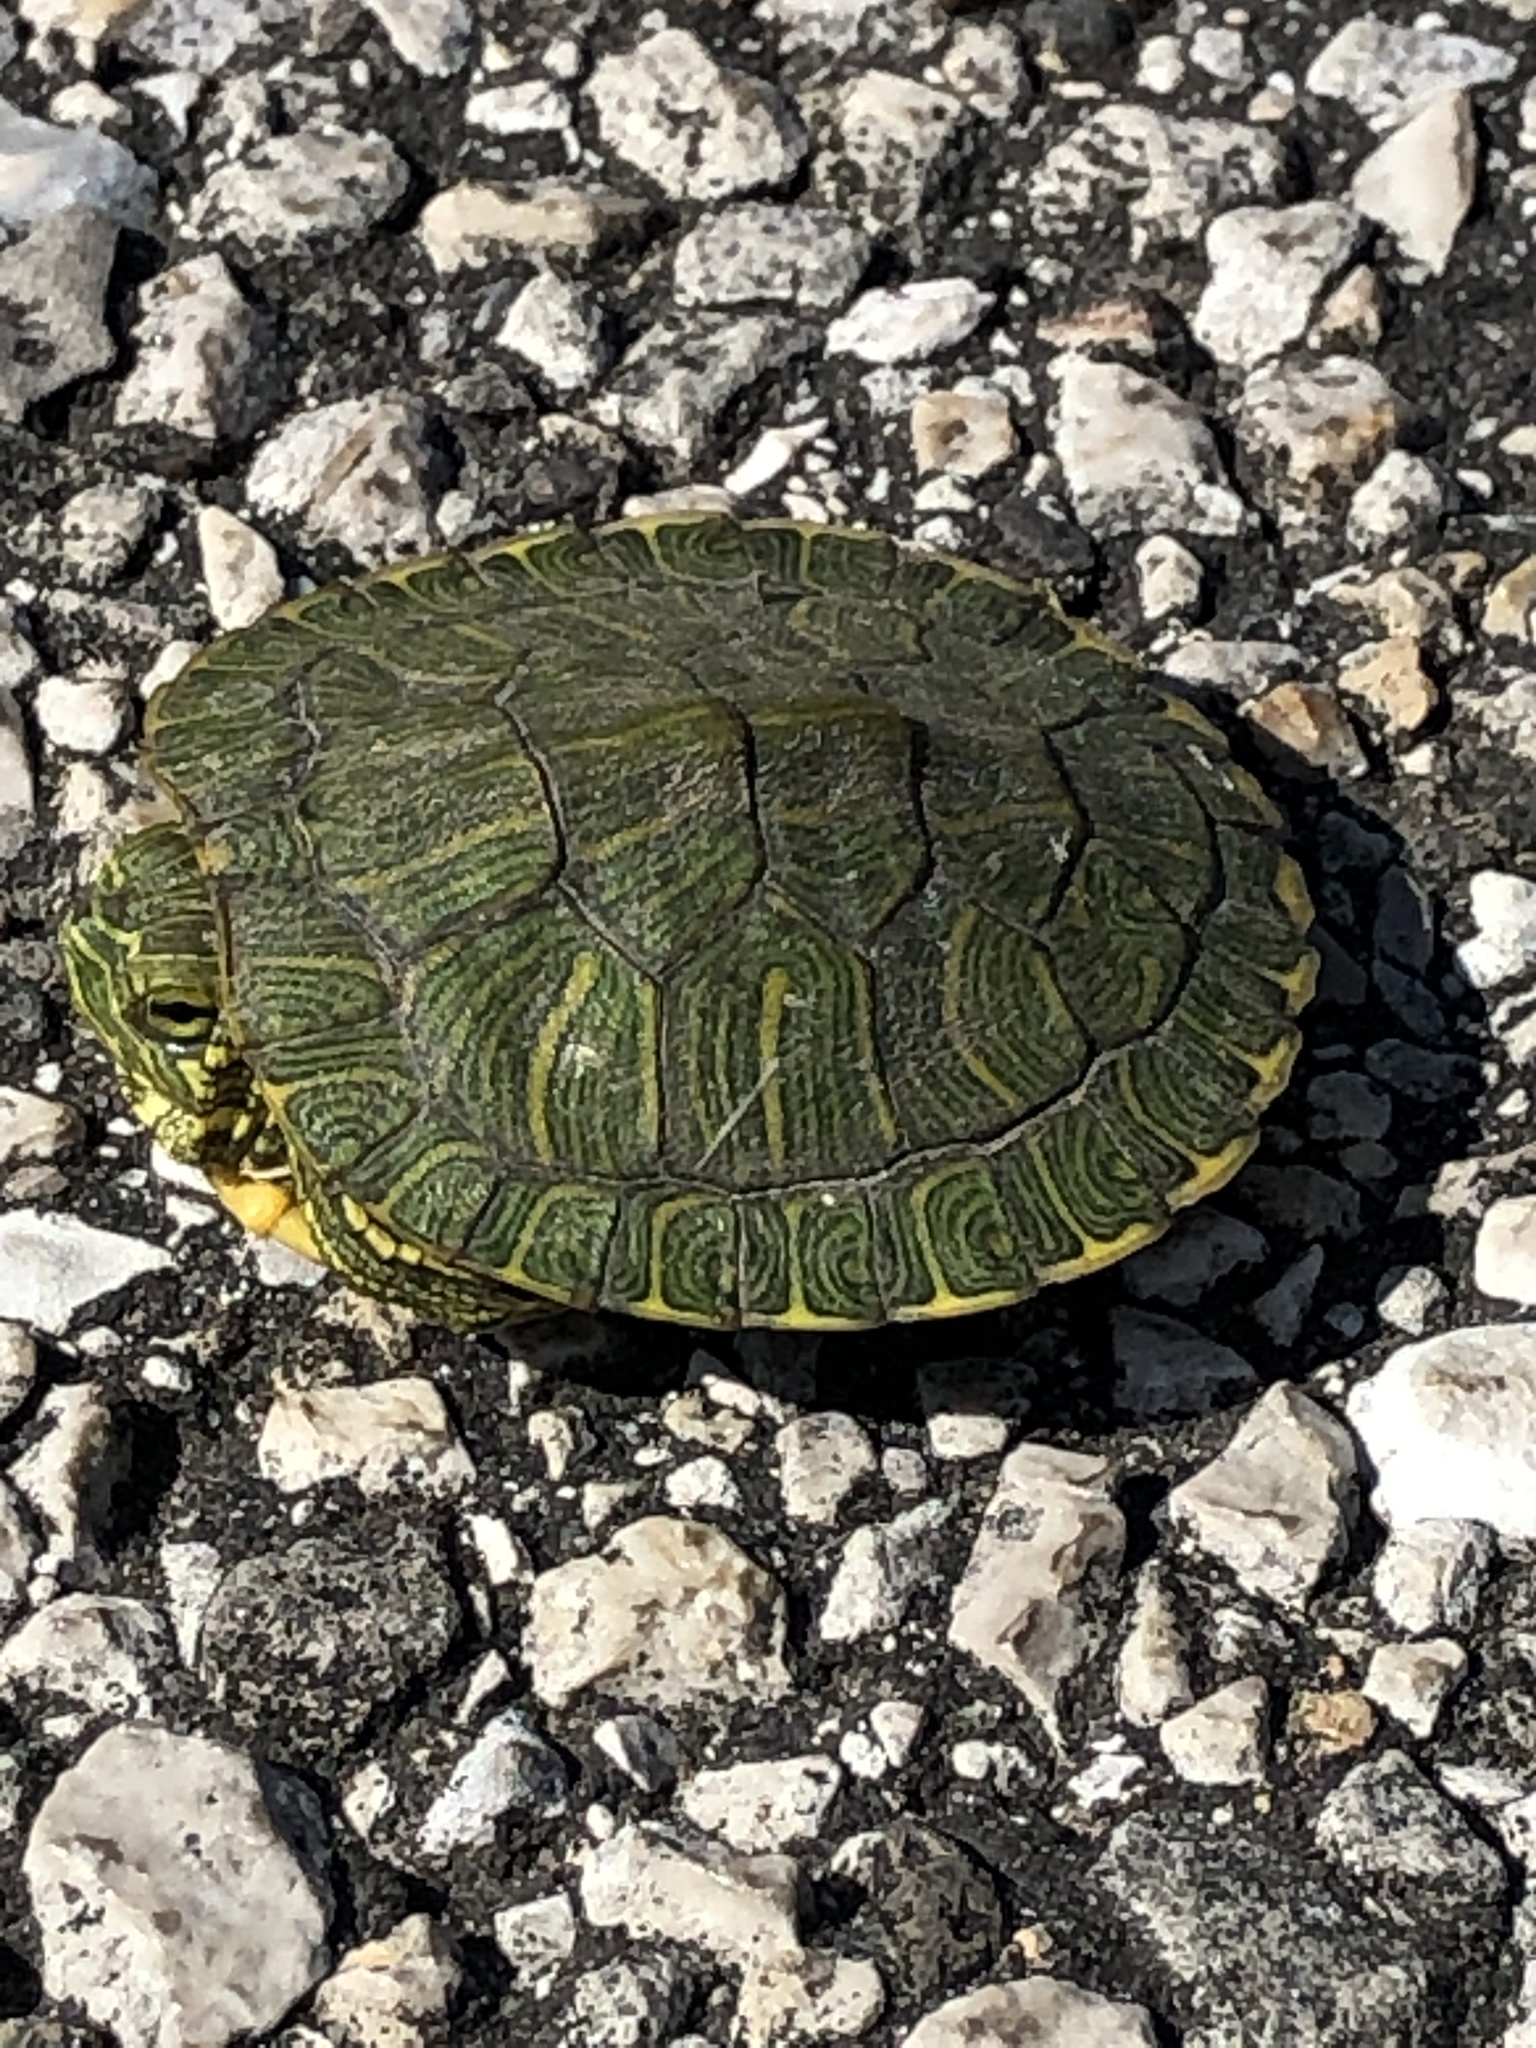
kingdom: Animalia
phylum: Chordata
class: Testudines
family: Emydidae
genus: Trachemys
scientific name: Trachemys scripta
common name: Slider
